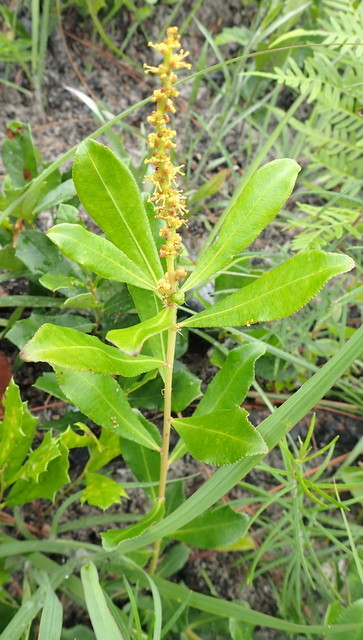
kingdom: Plantae
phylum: Tracheophyta
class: Magnoliopsida
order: Malpighiales
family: Euphorbiaceae
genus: Stillingia
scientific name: Stillingia sylvatica
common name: Queen's-delight
